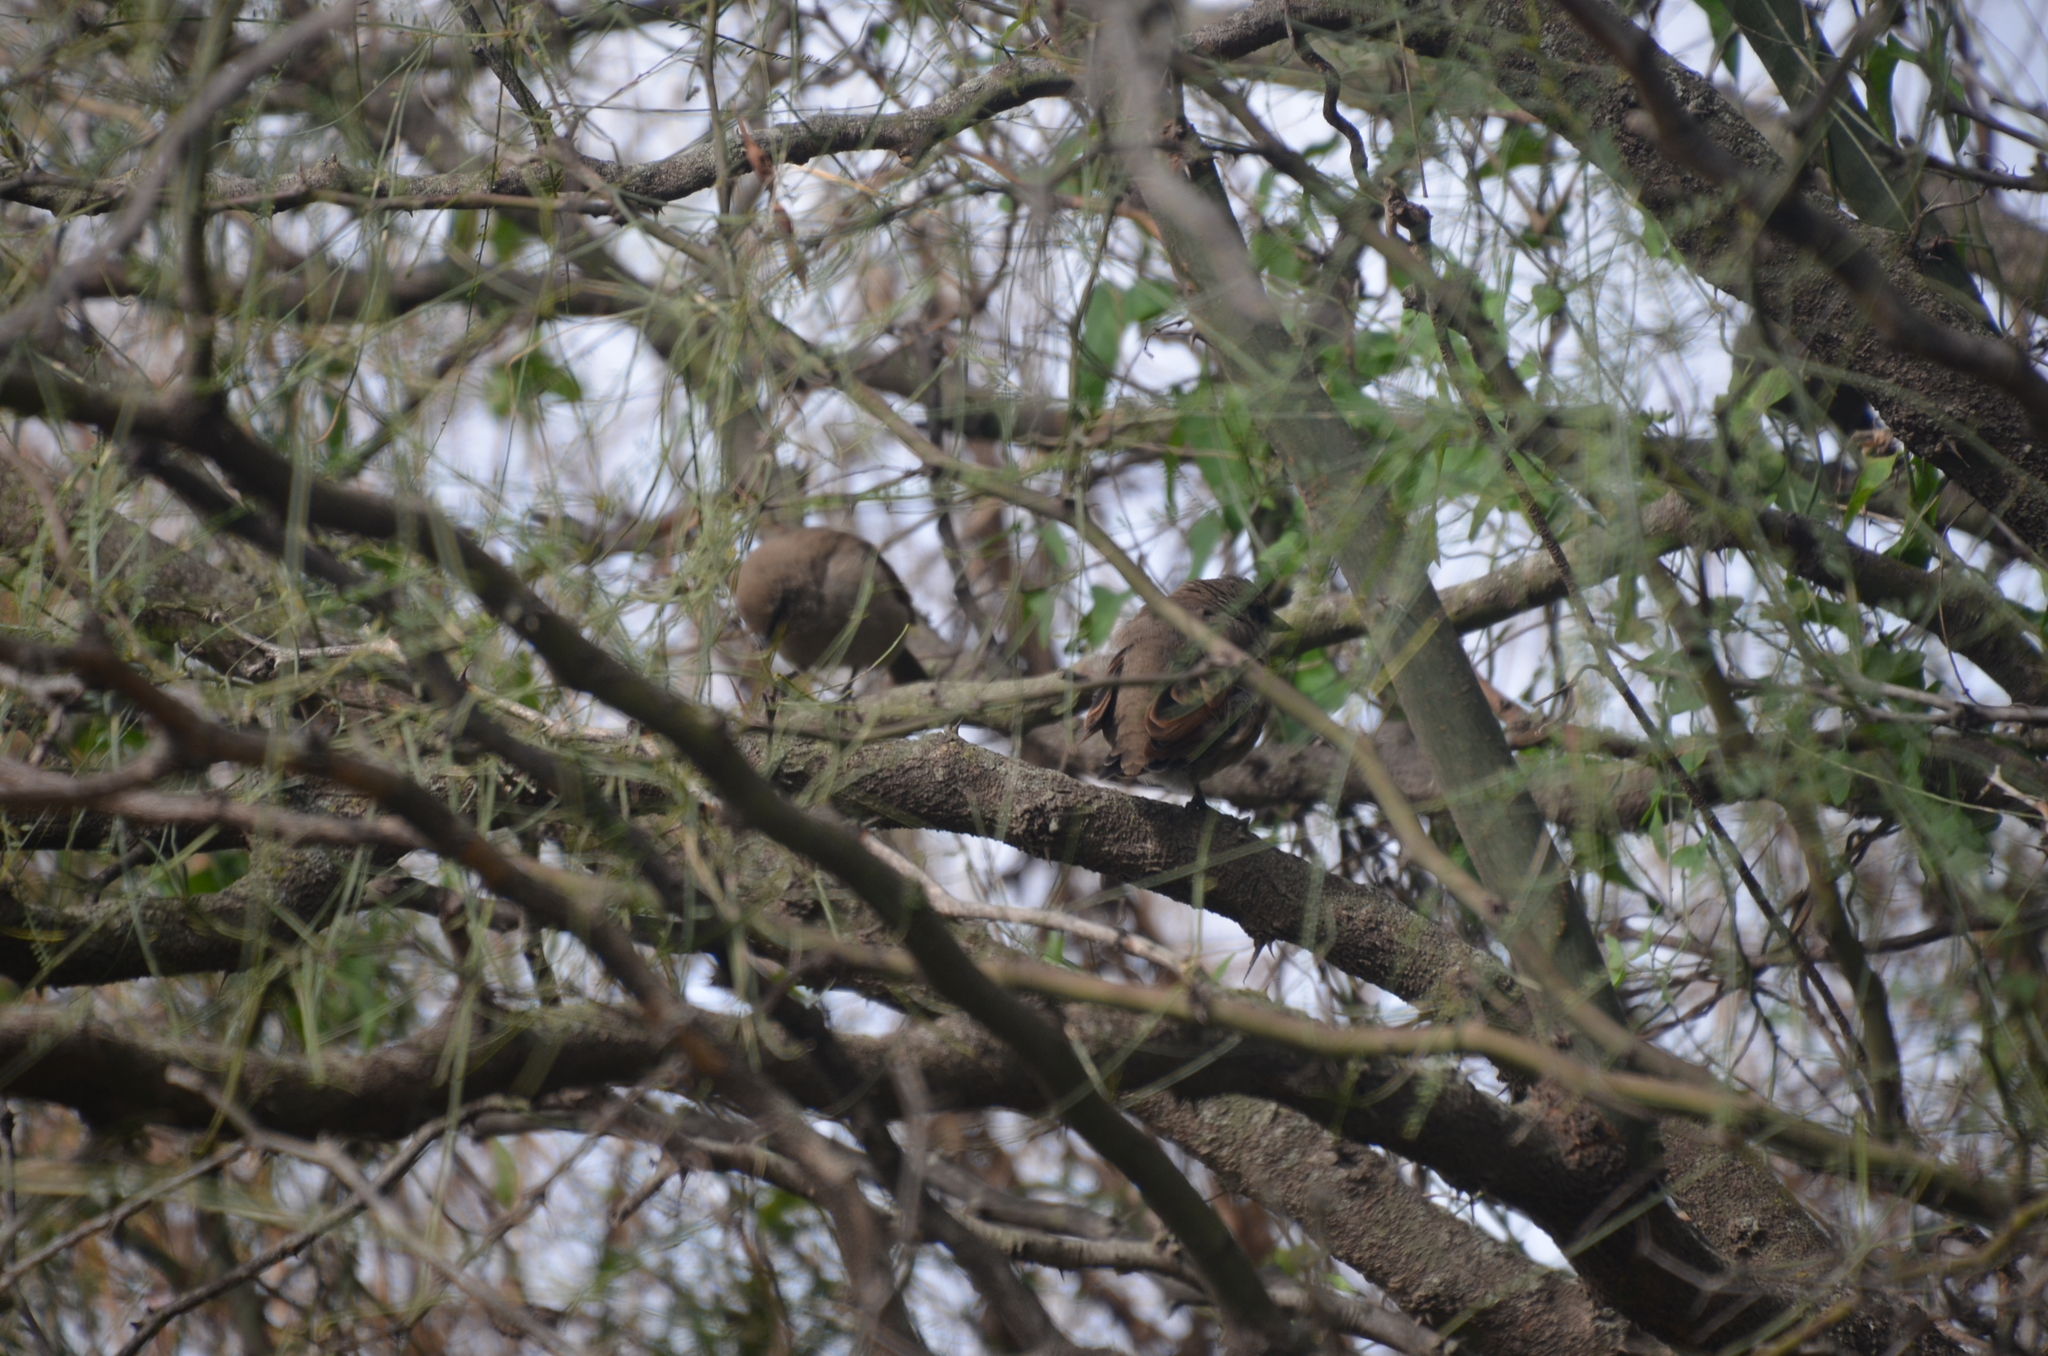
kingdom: Animalia
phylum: Chordata
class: Aves
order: Passeriformes
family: Icteridae
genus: Agelaioides
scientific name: Agelaioides badius
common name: Baywing
